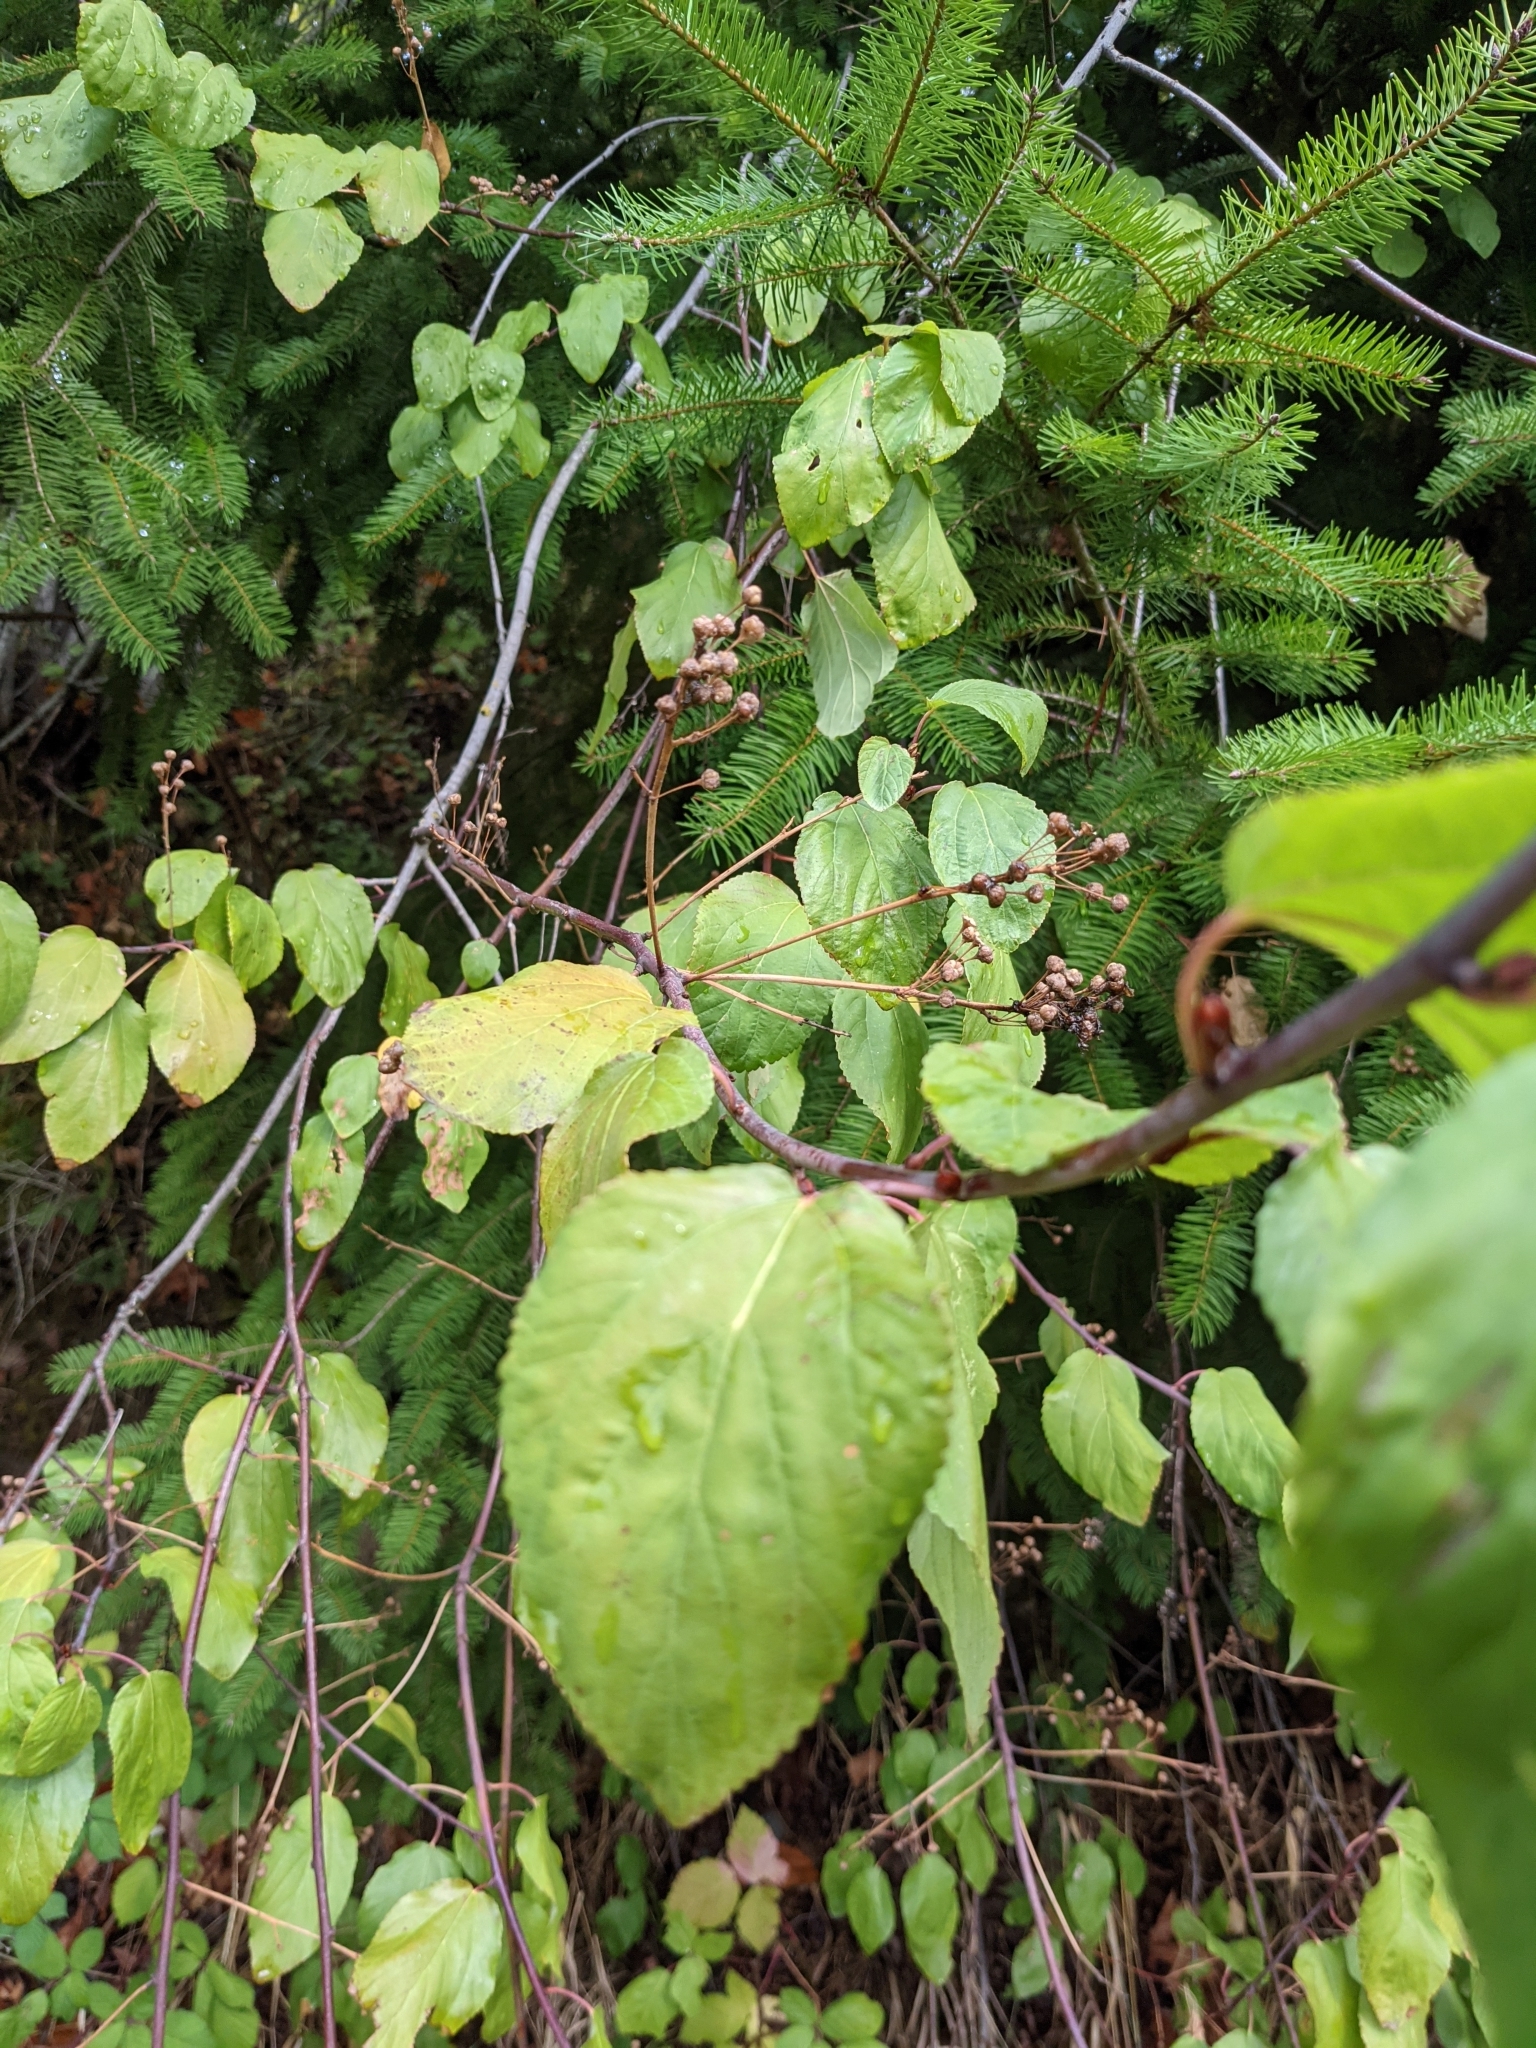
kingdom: Plantae
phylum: Tracheophyta
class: Magnoliopsida
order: Rosales
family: Rhamnaceae
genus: Ceanothus
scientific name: Ceanothus sanguineus
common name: Teatree
